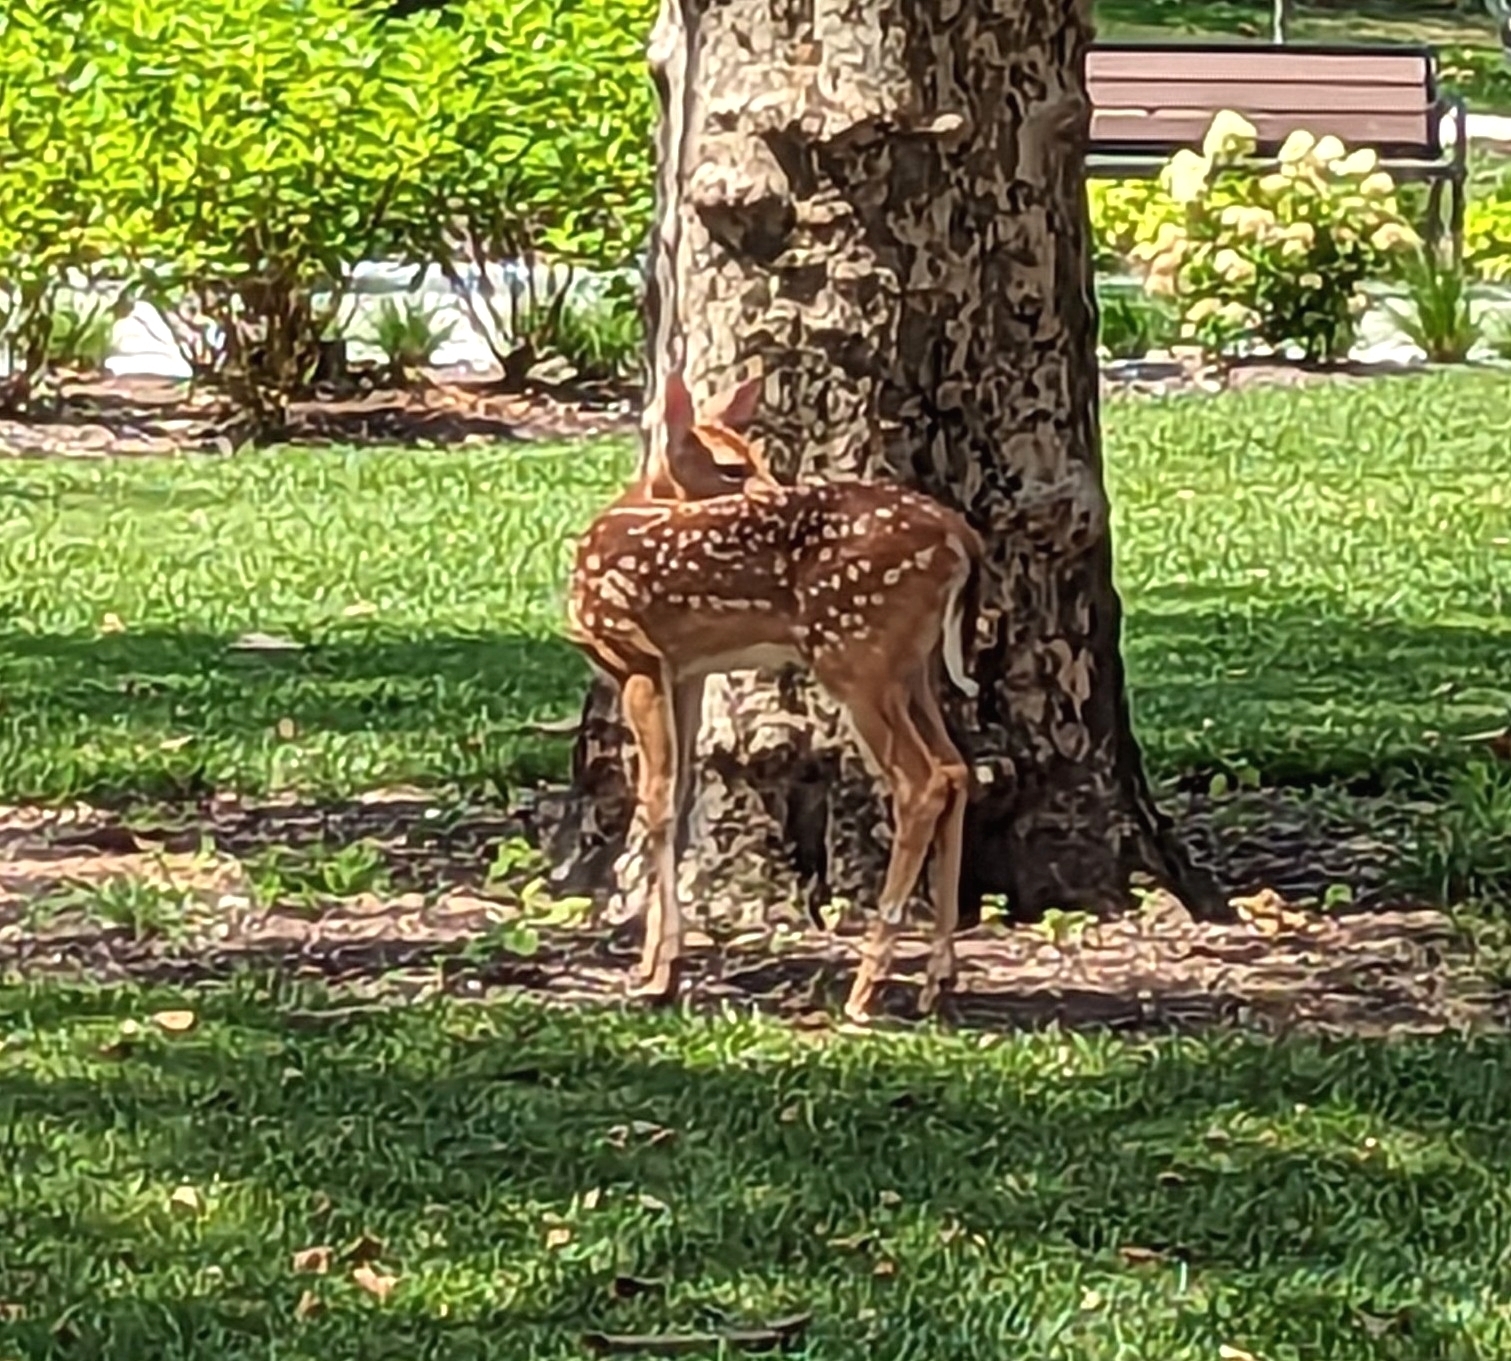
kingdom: Animalia
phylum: Chordata
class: Mammalia
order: Artiodactyla
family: Cervidae
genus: Odocoileus
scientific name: Odocoileus virginianus
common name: White-tailed deer
